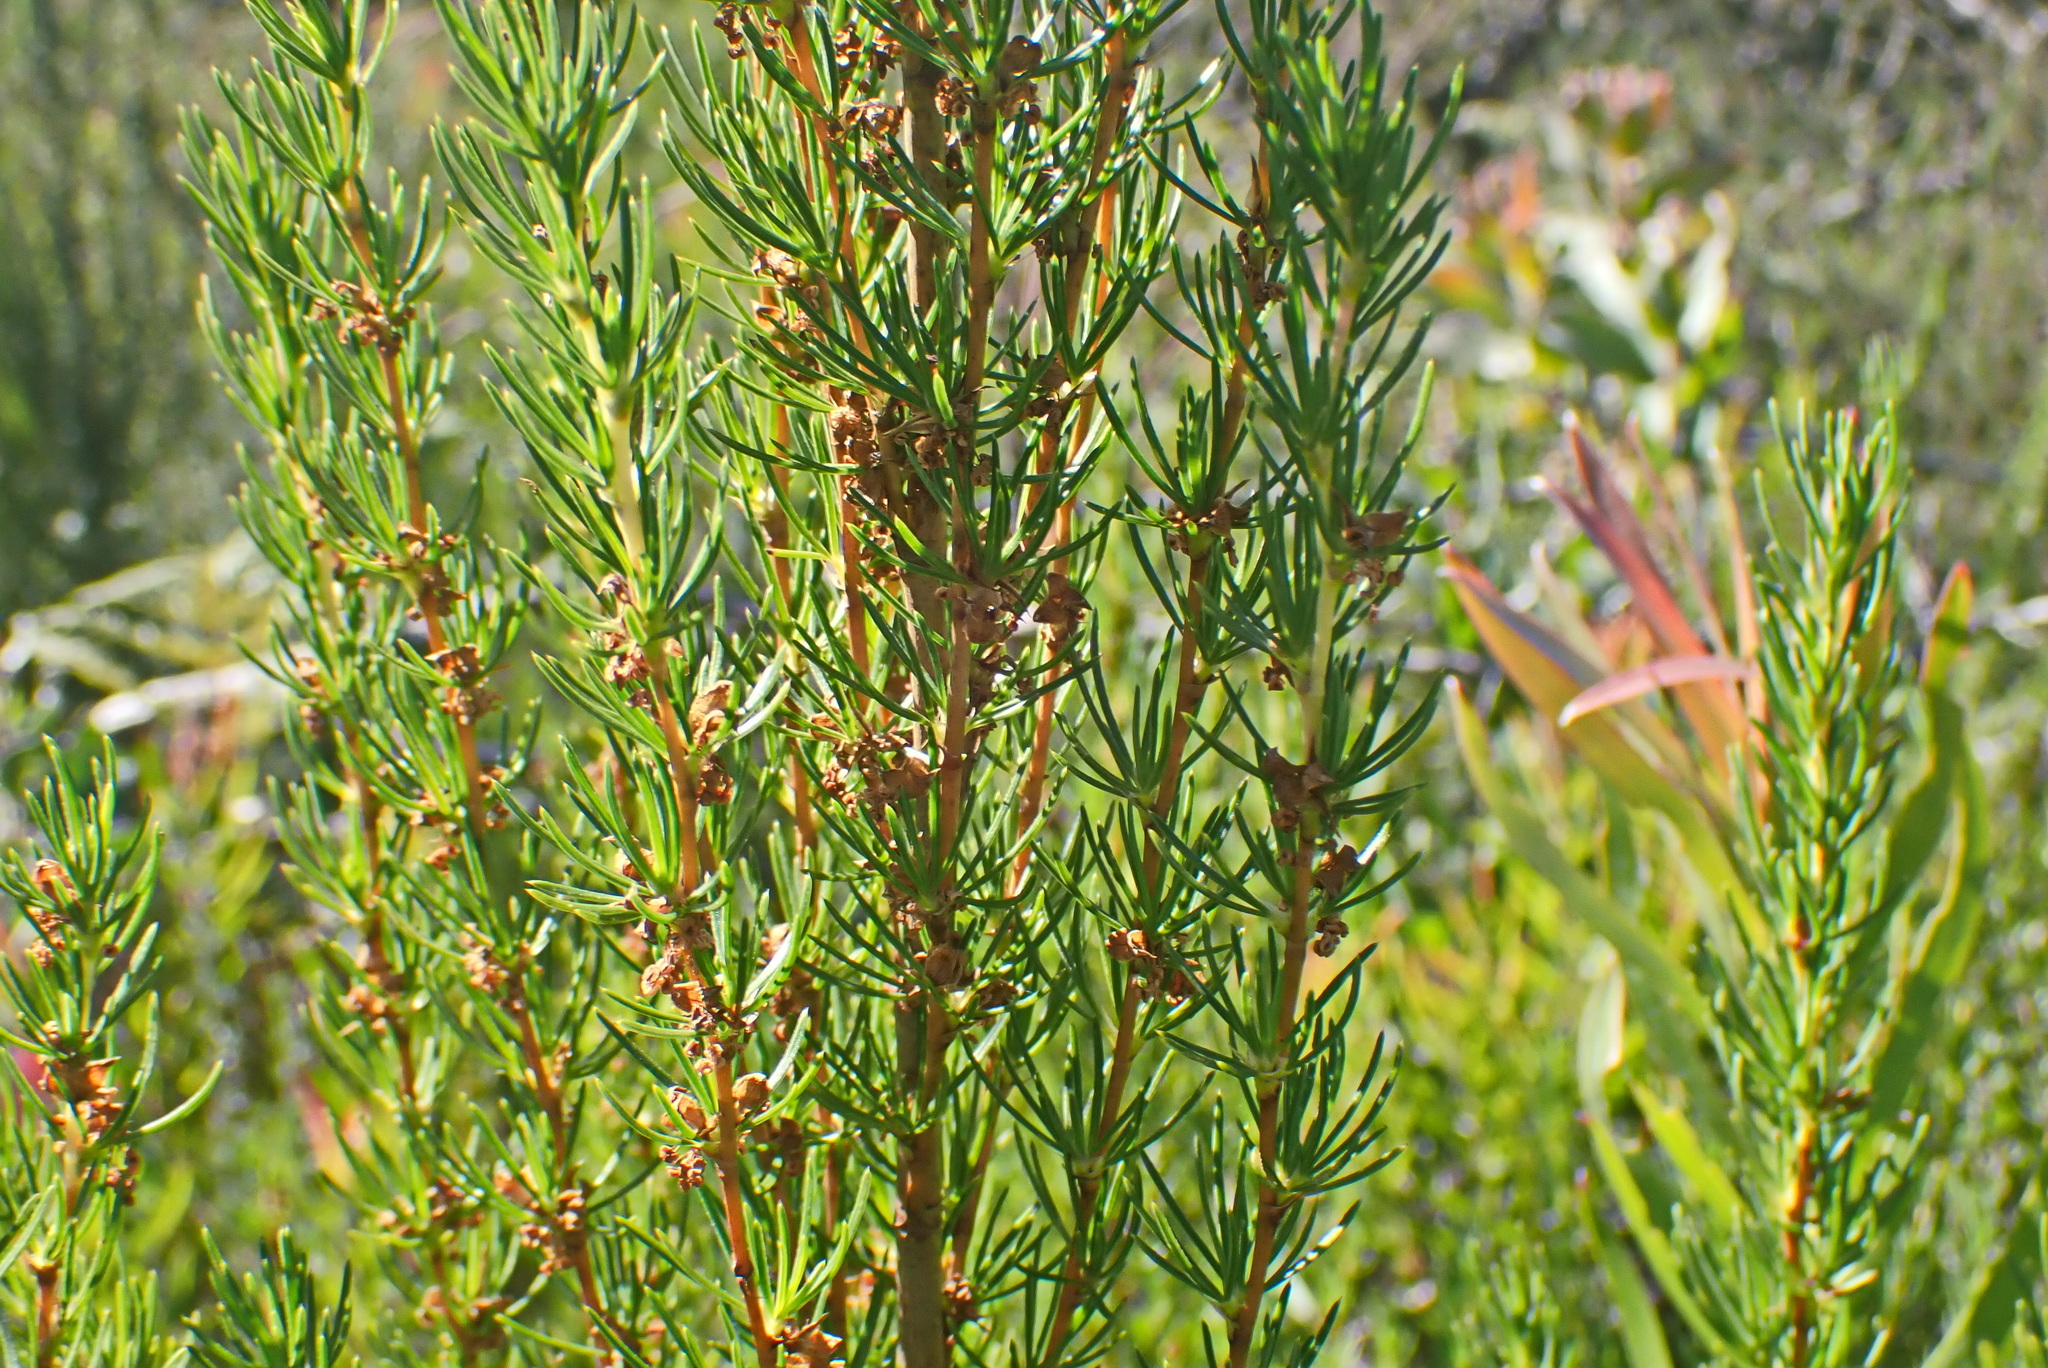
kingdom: Plantae
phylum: Tracheophyta
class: Magnoliopsida
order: Rosales
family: Rosaceae
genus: Cliffortia
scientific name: Cliffortia burchellii
